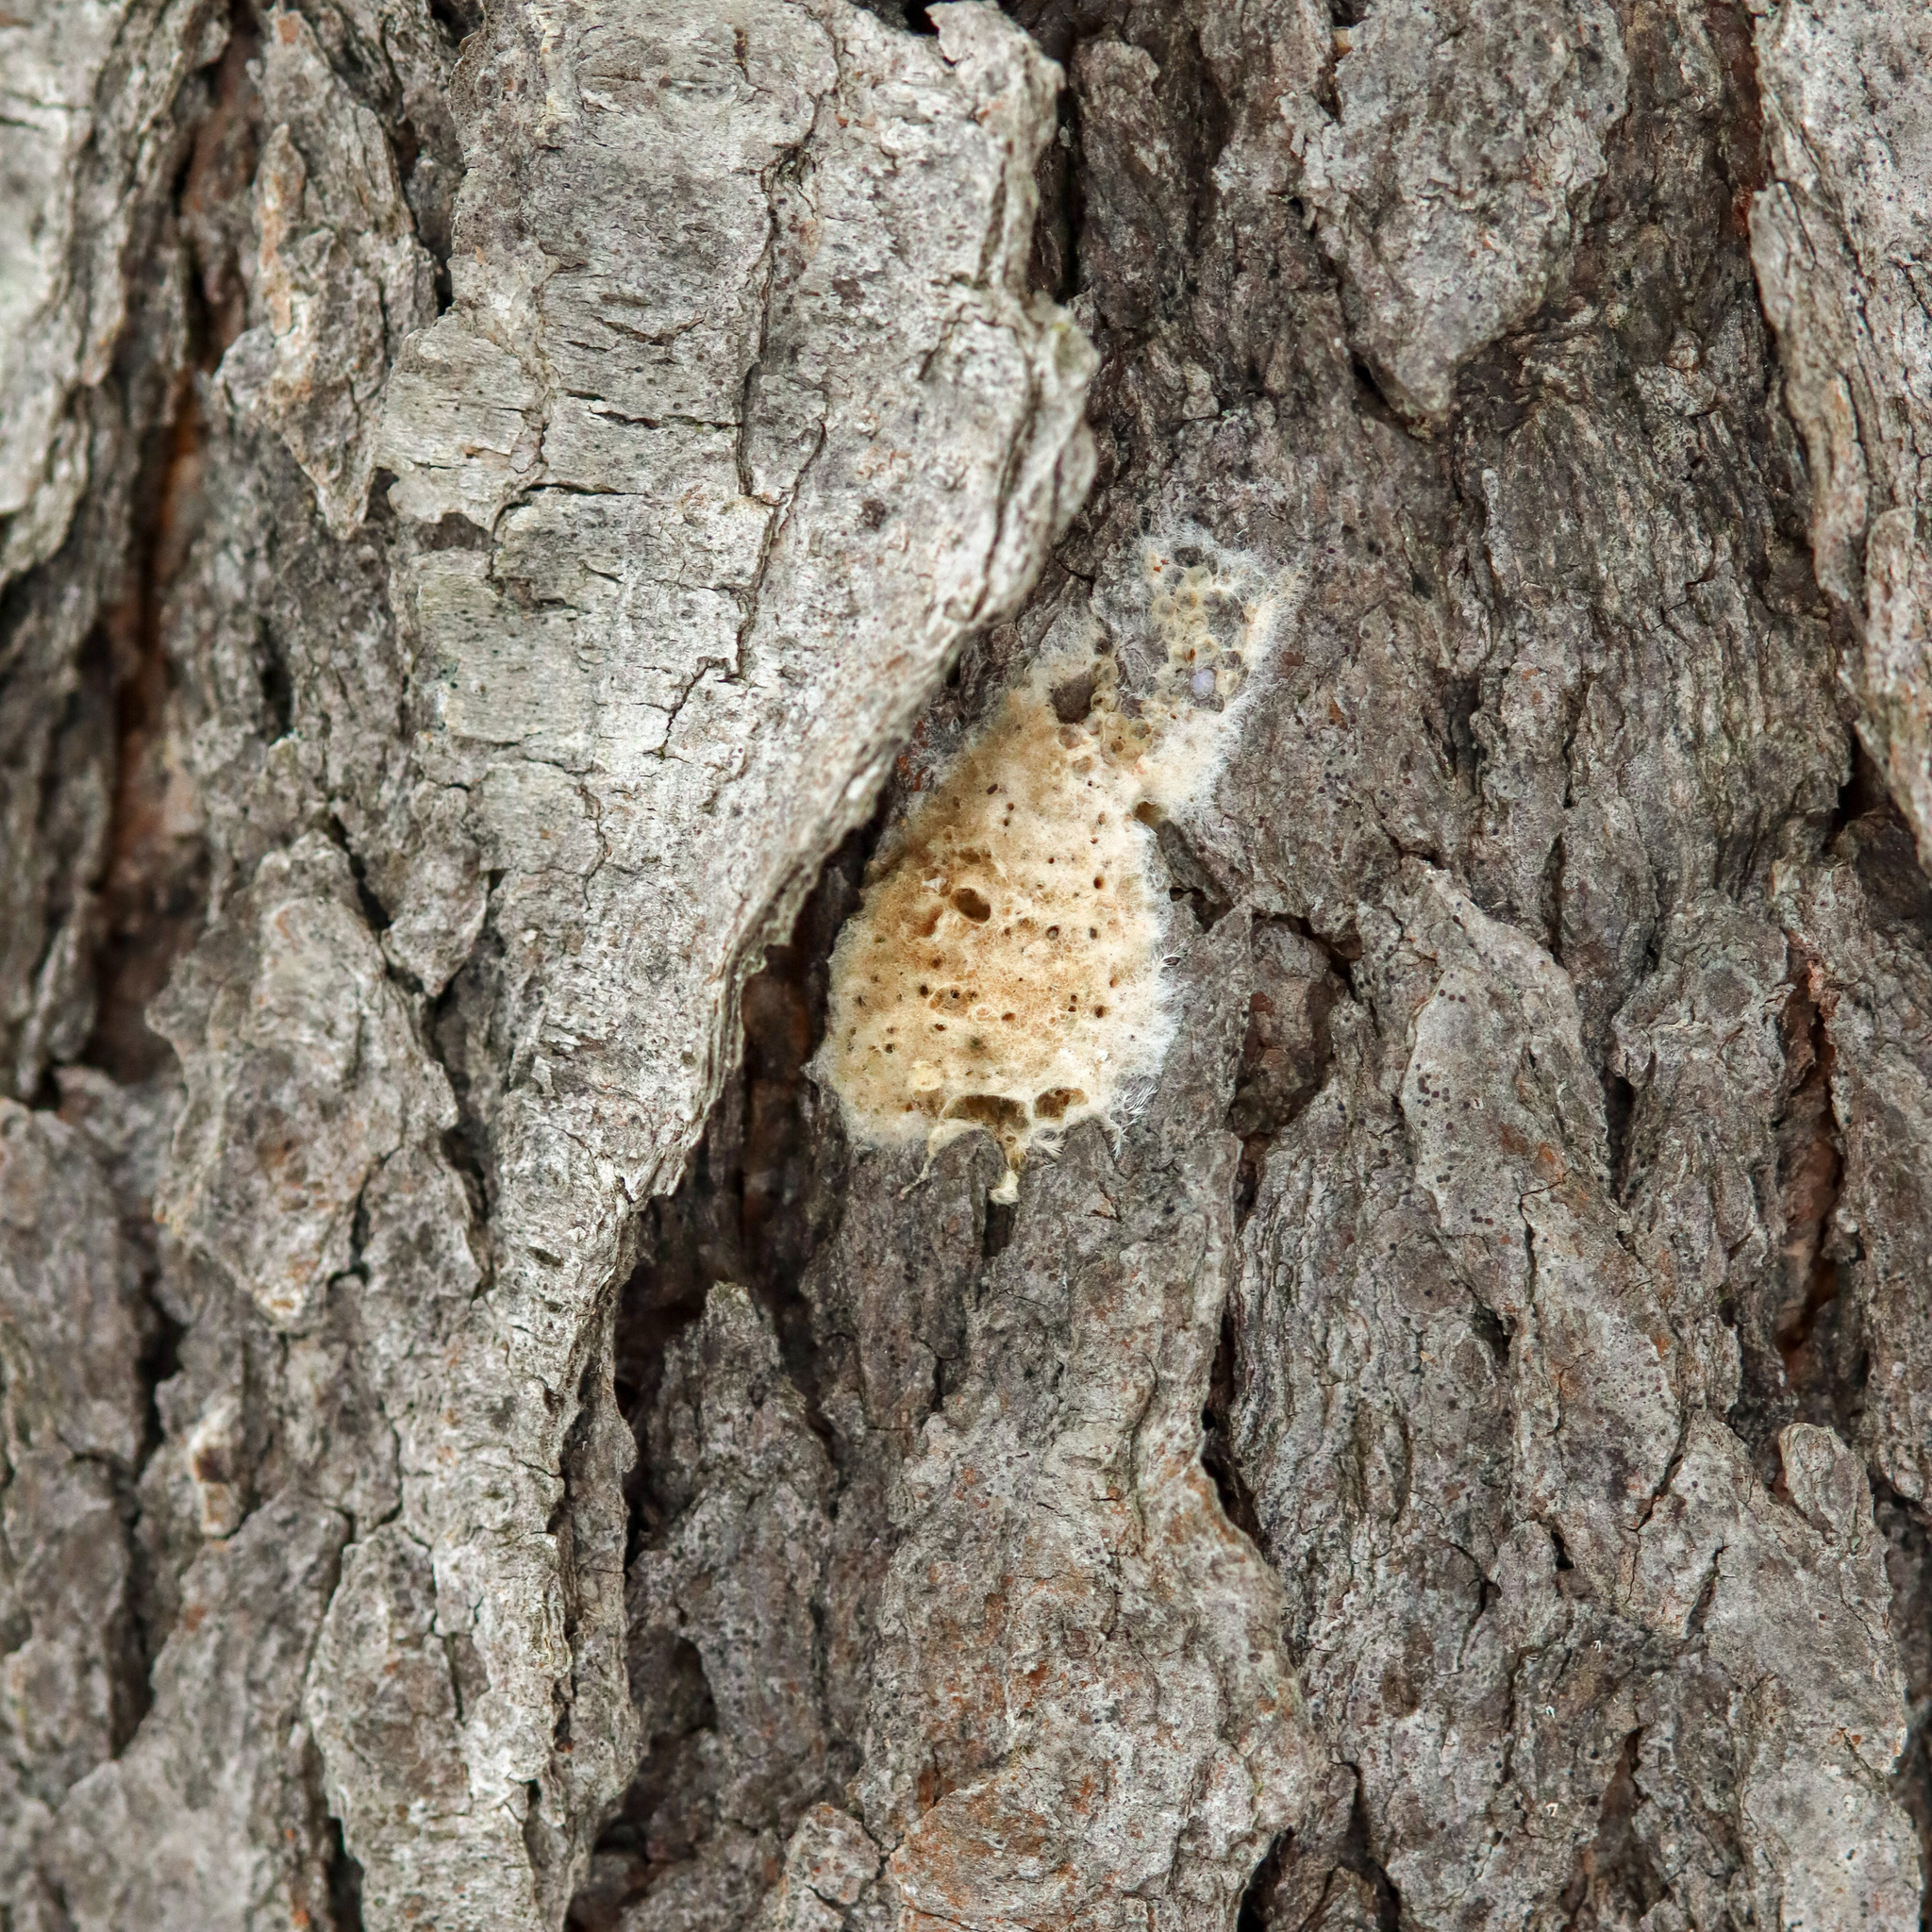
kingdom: Animalia
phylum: Arthropoda
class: Insecta
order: Lepidoptera
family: Erebidae
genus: Lymantria
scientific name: Lymantria dispar
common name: Gypsy moth
